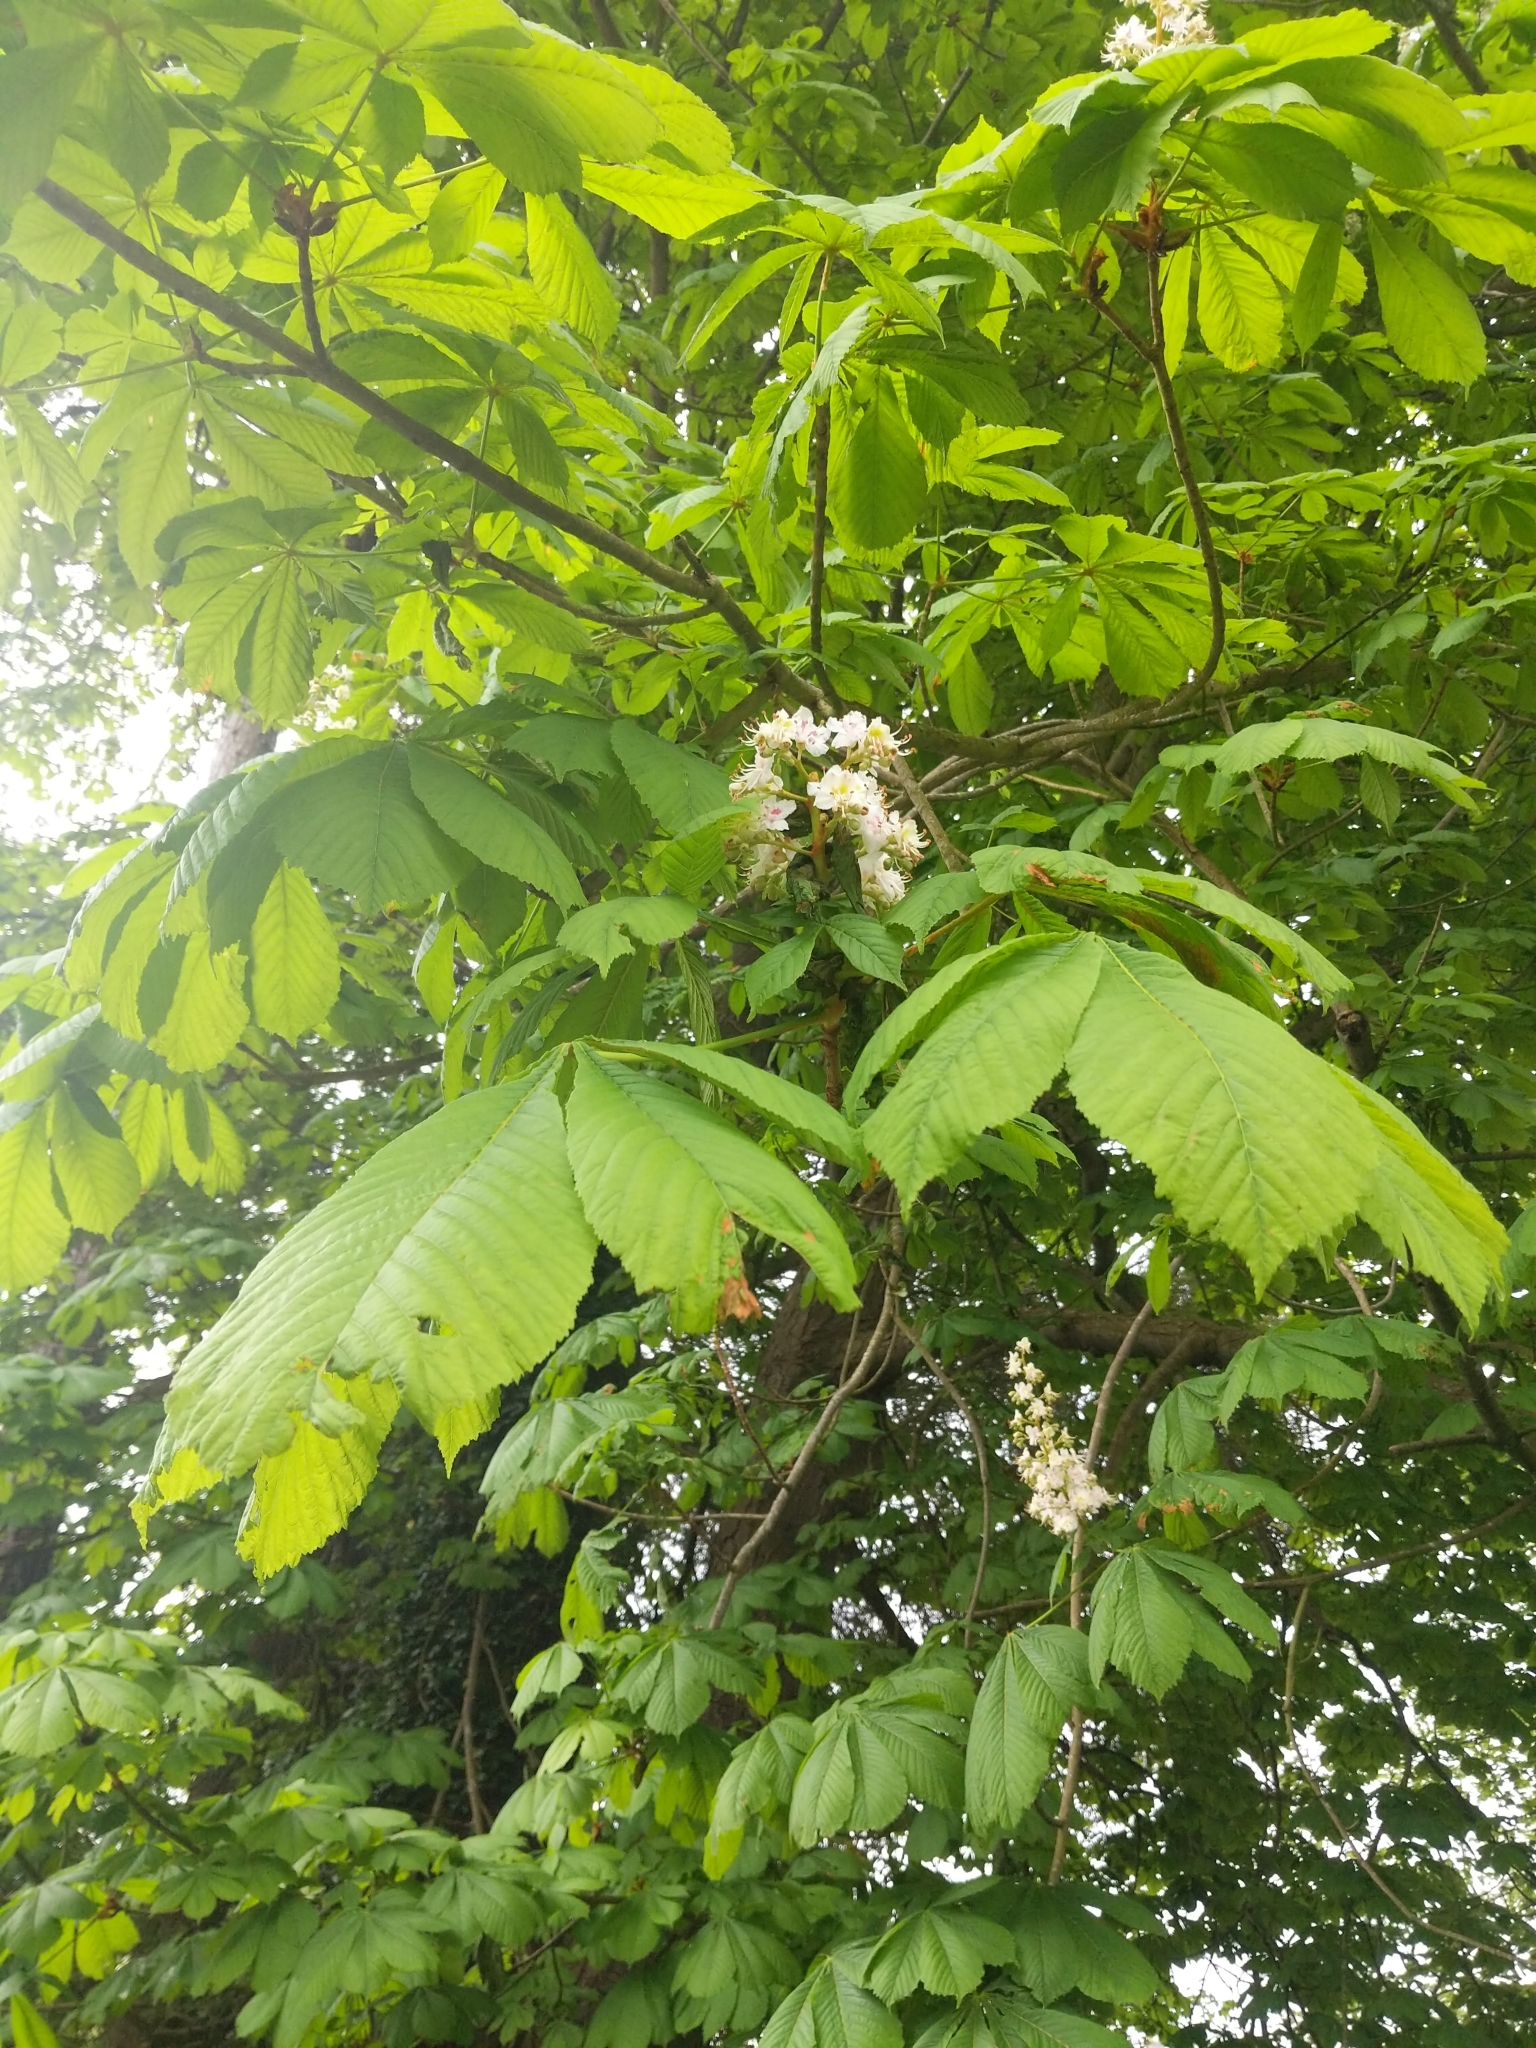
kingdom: Plantae
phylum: Tracheophyta
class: Magnoliopsida
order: Sapindales
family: Sapindaceae
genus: Aesculus
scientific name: Aesculus hippocastanum
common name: Horse-chestnut
